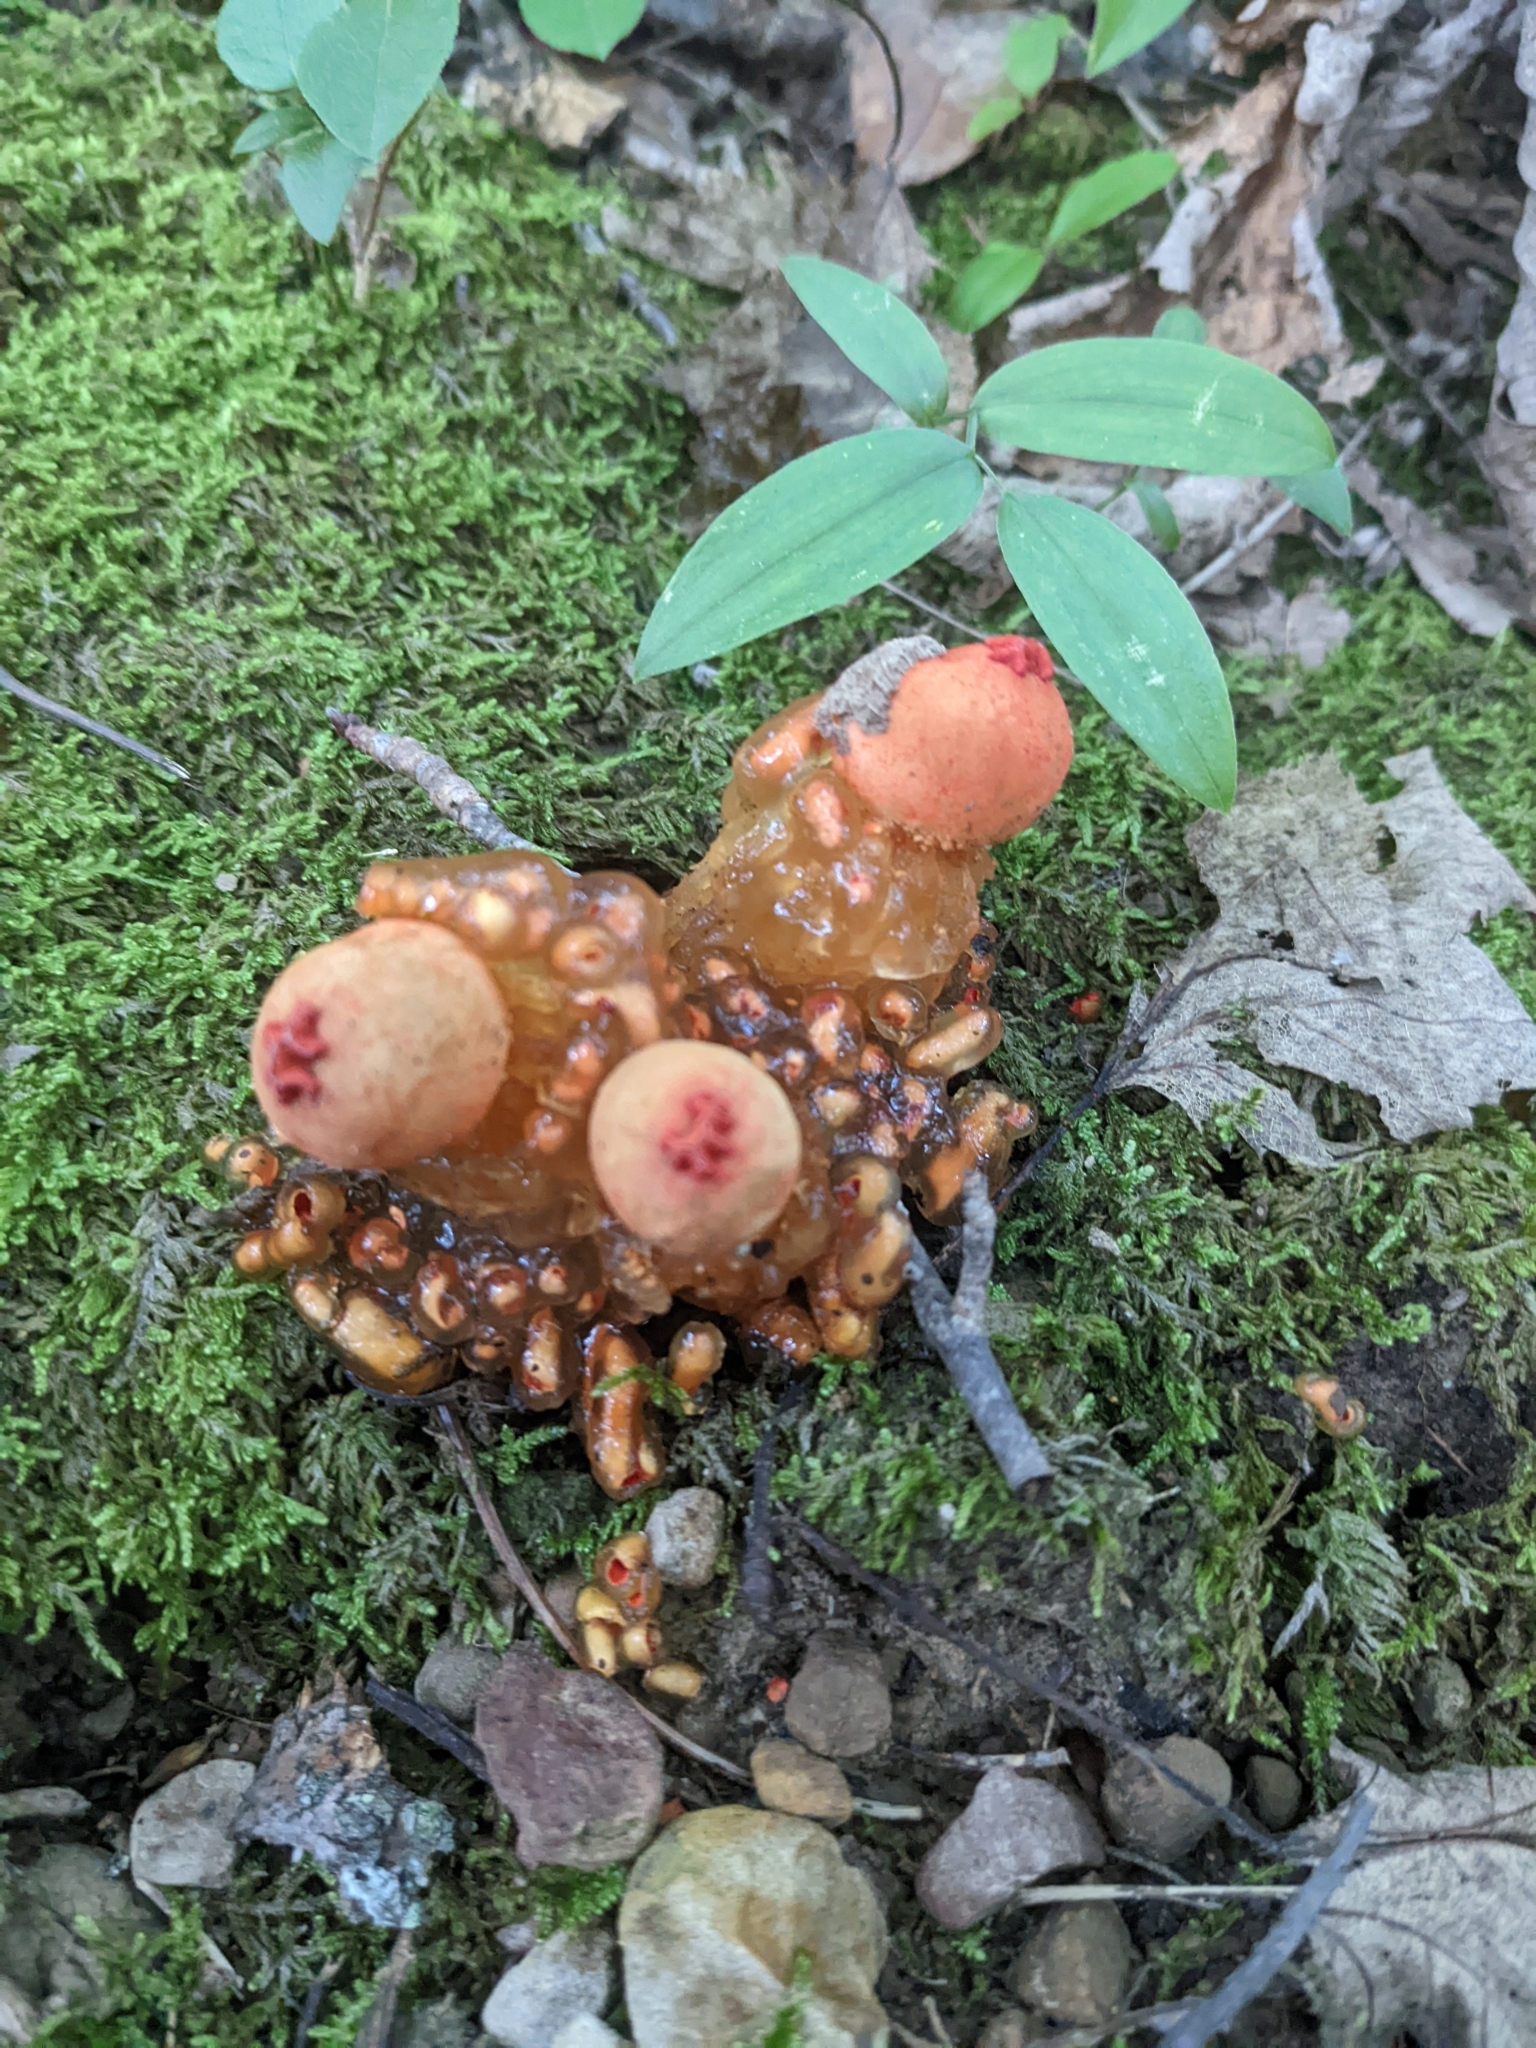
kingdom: Fungi
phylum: Basidiomycota
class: Agaricomycetes
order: Boletales
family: Calostomataceae
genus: Calostoma
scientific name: Calostoma cinnabarinum
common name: Stalked puffball-in-aspic
